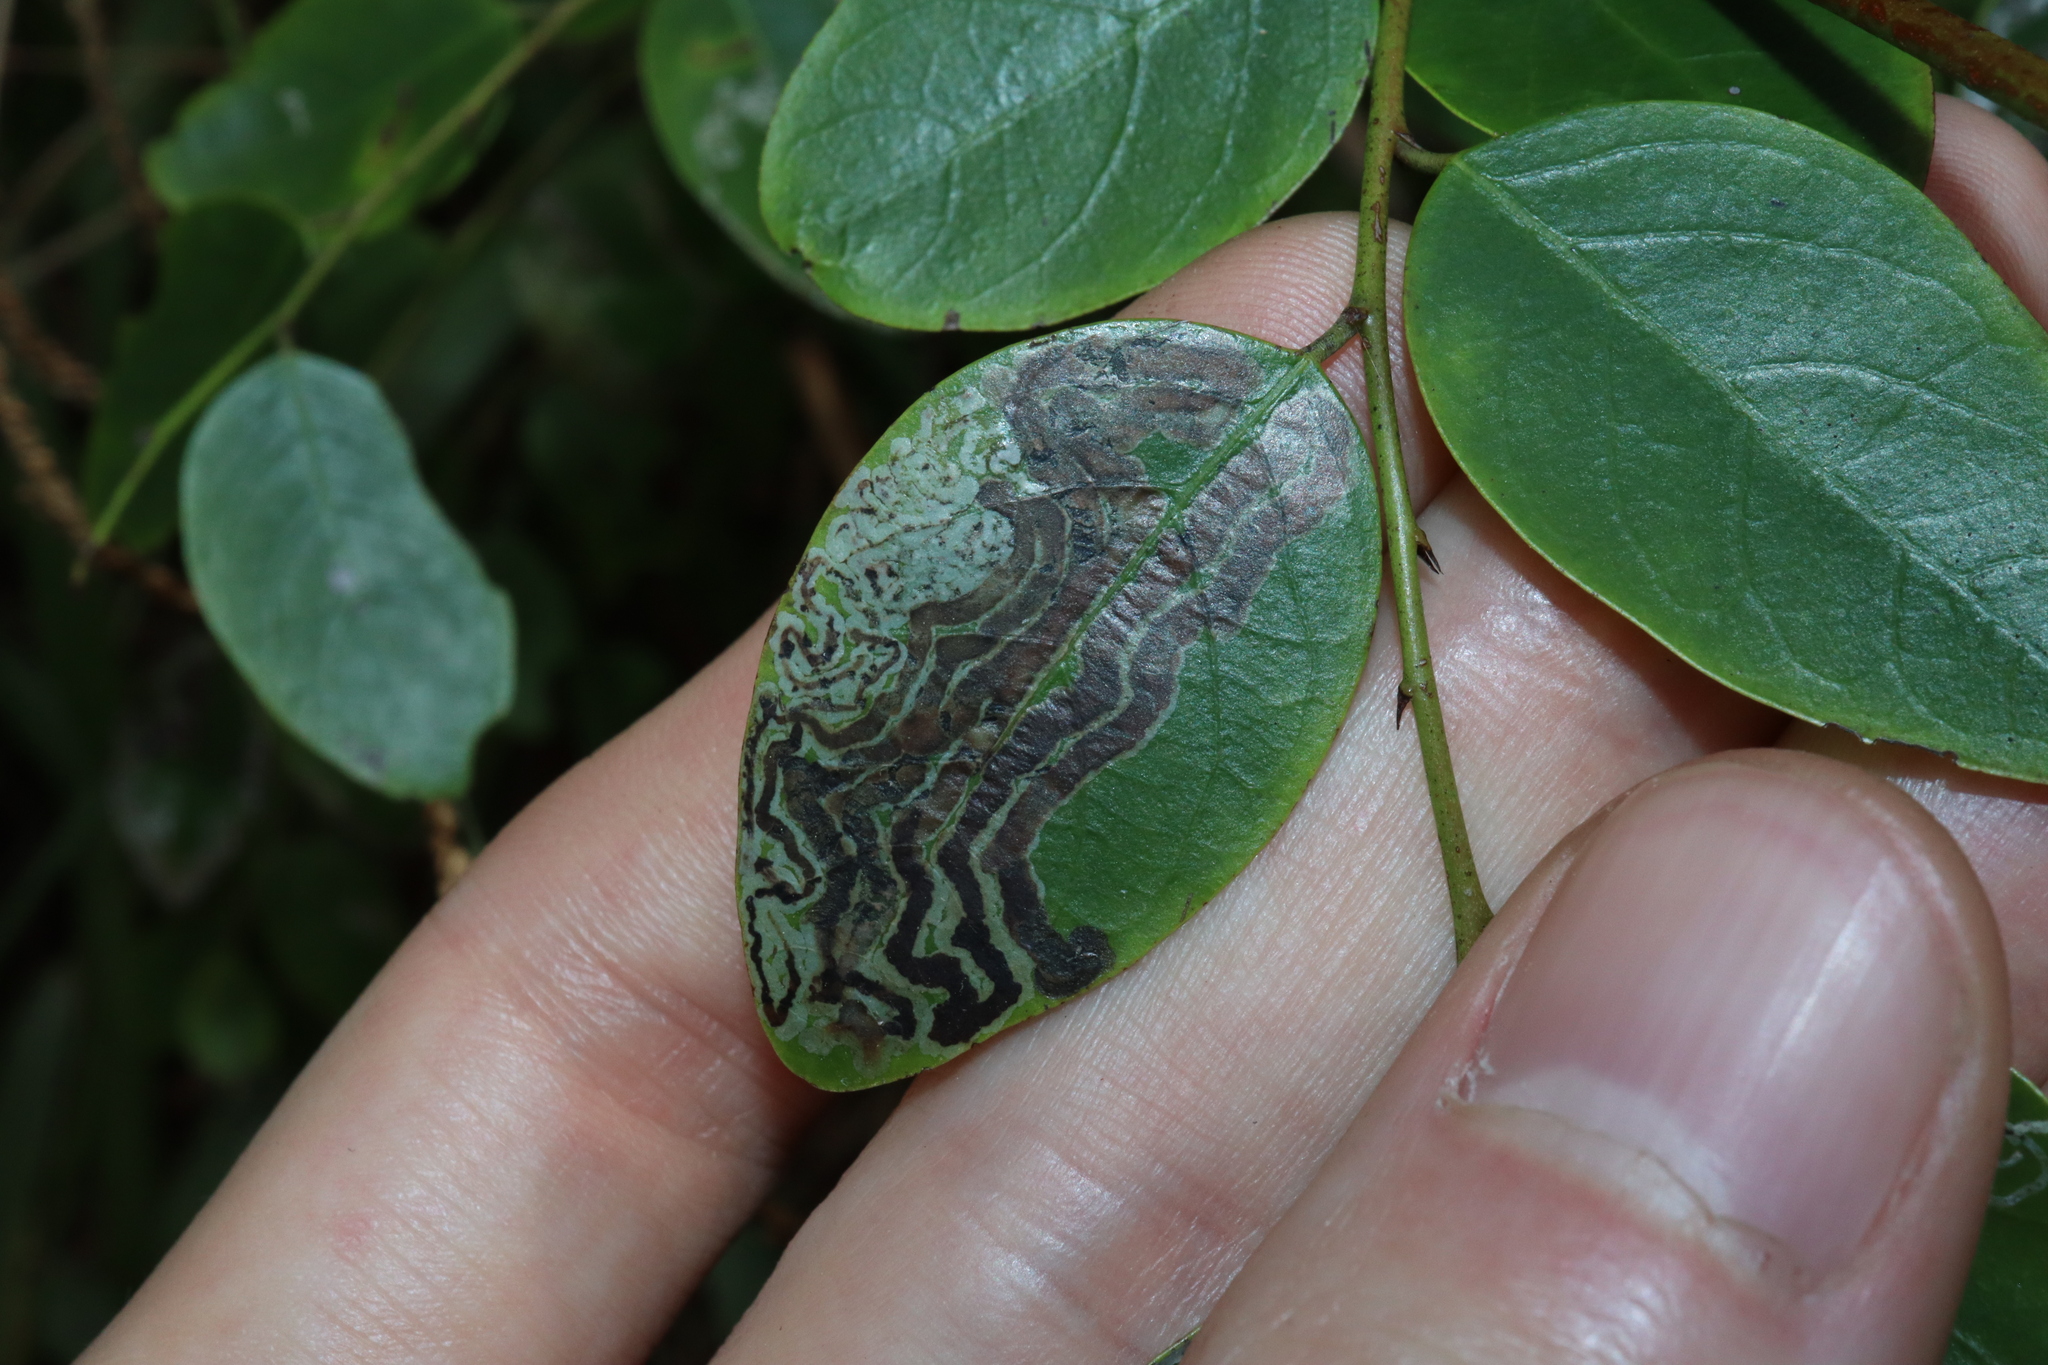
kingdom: Animalia
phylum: Arthropoda
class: Insecta
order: Lepidoptera
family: Gracillariidae
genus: Phyllocnistis
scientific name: Phyllocnistis diaugella
